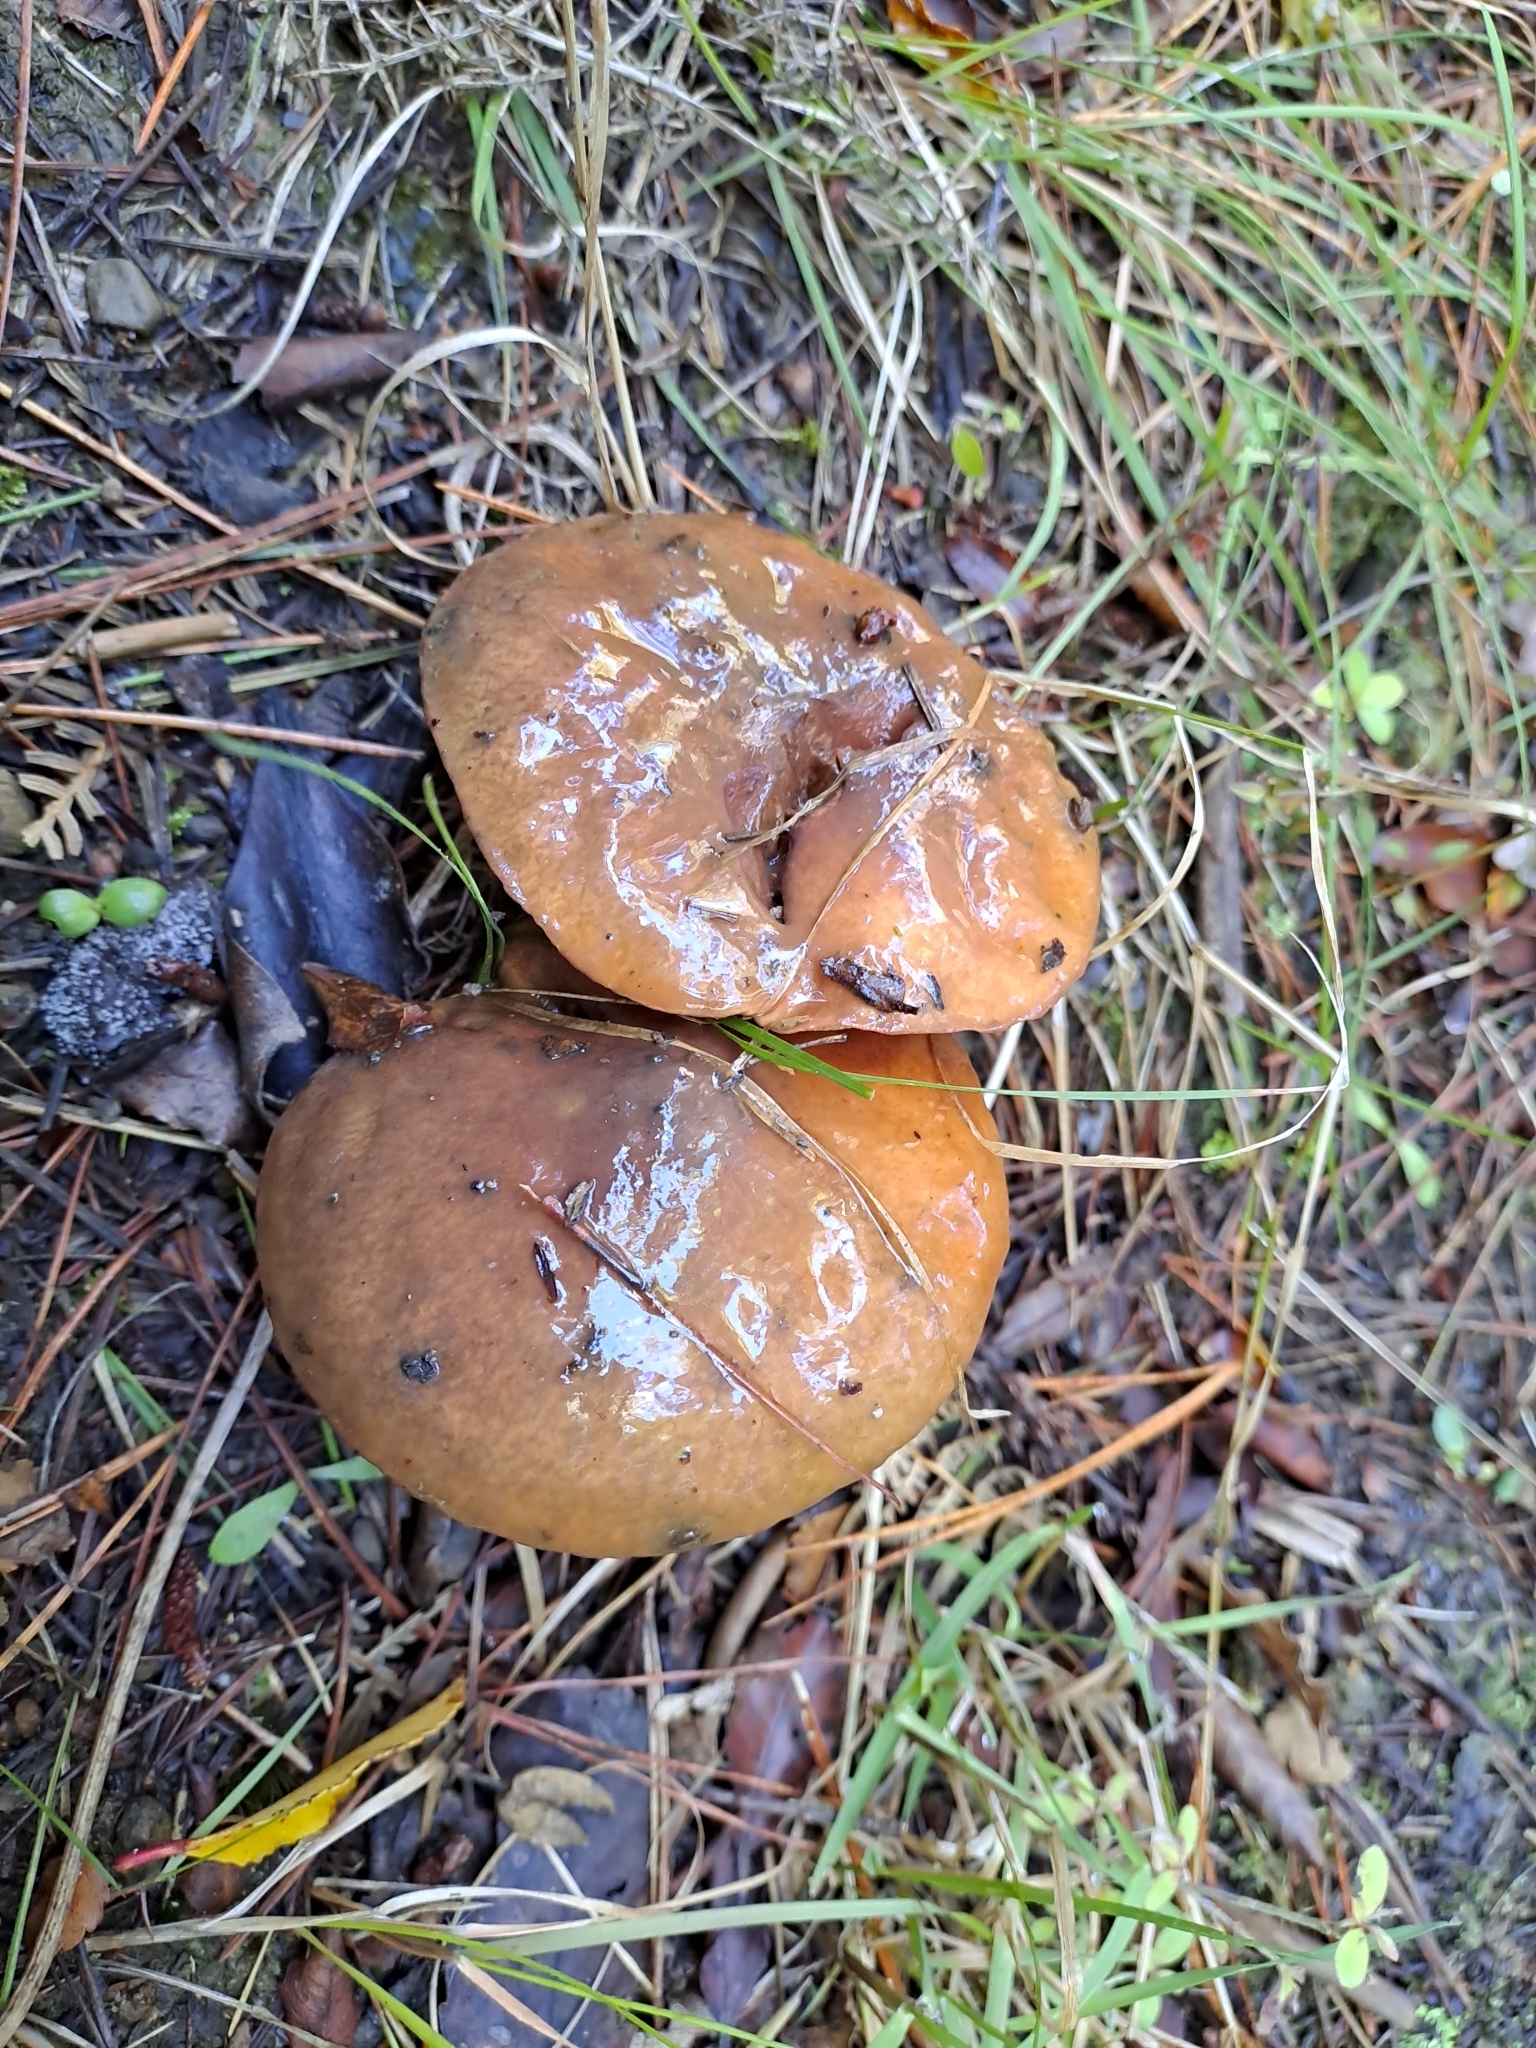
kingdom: Fungi
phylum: Basidiomycota
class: Agaricomycetes
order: Boletales
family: Suillaceae
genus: Suillus
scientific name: Suillus luteus
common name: Slippery jack
